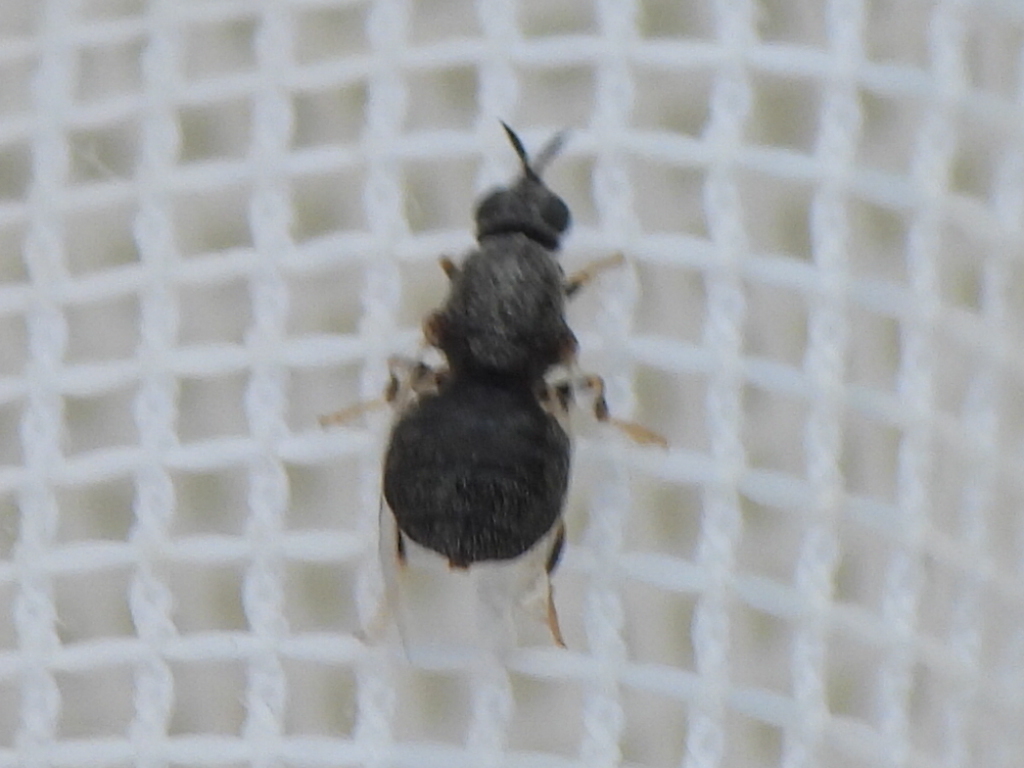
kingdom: Animalia
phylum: Arthropoda
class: Insecta
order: Diptera
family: Stratiomyidae
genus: Nemotelus
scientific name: Nemotelus bruesii
